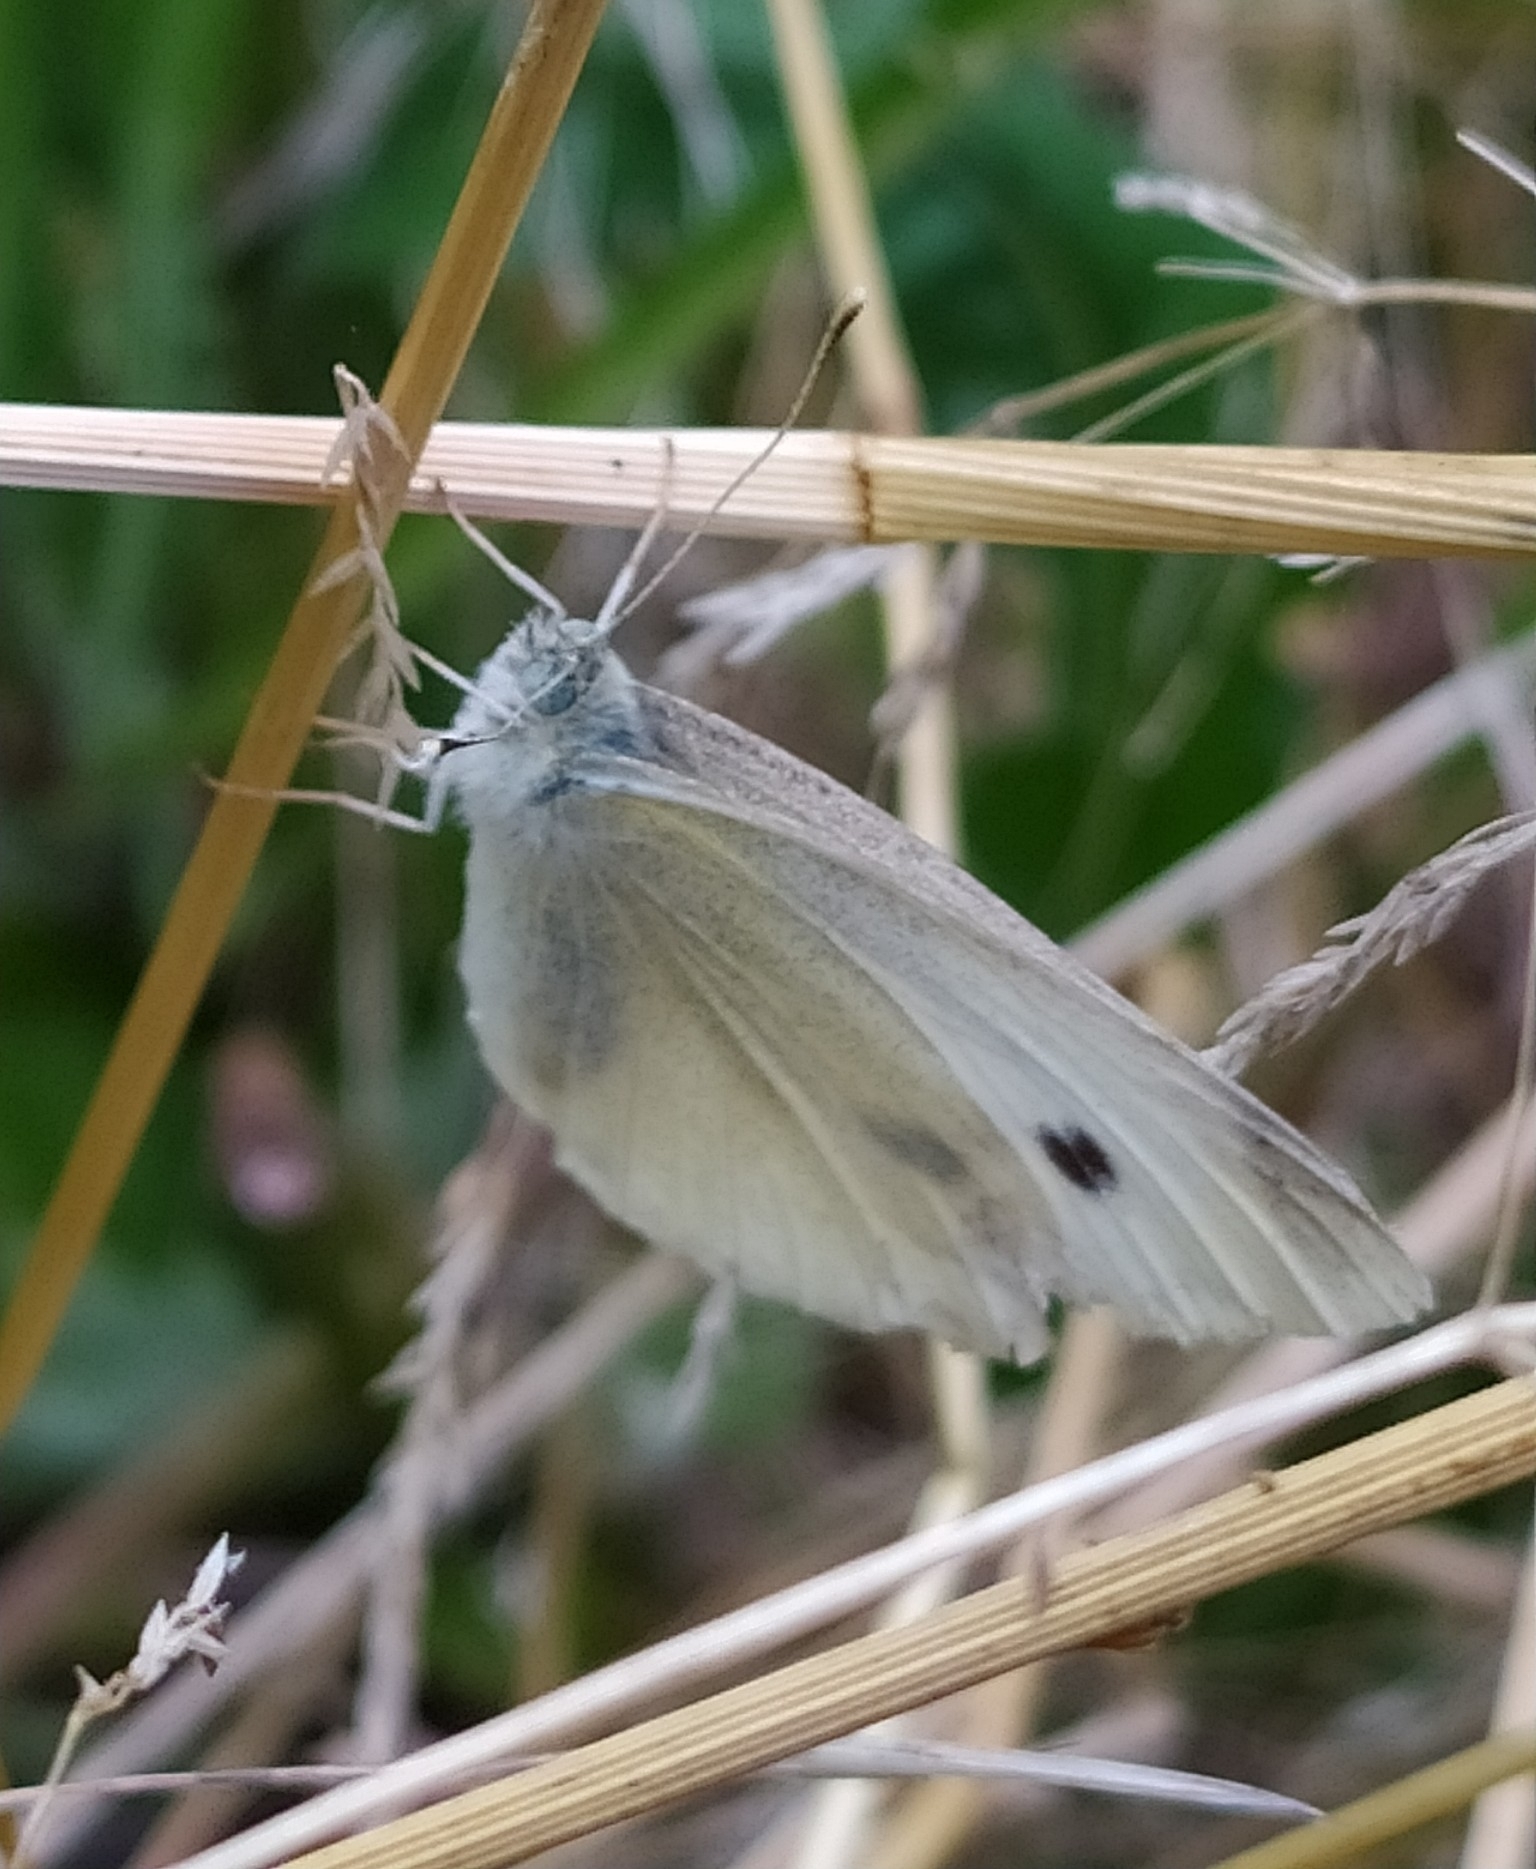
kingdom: Animalia
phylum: Arthropoda
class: Insecta
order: Lepidoptera
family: Pieridae
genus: Pieris
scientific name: Pieris rapae
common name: Small white
